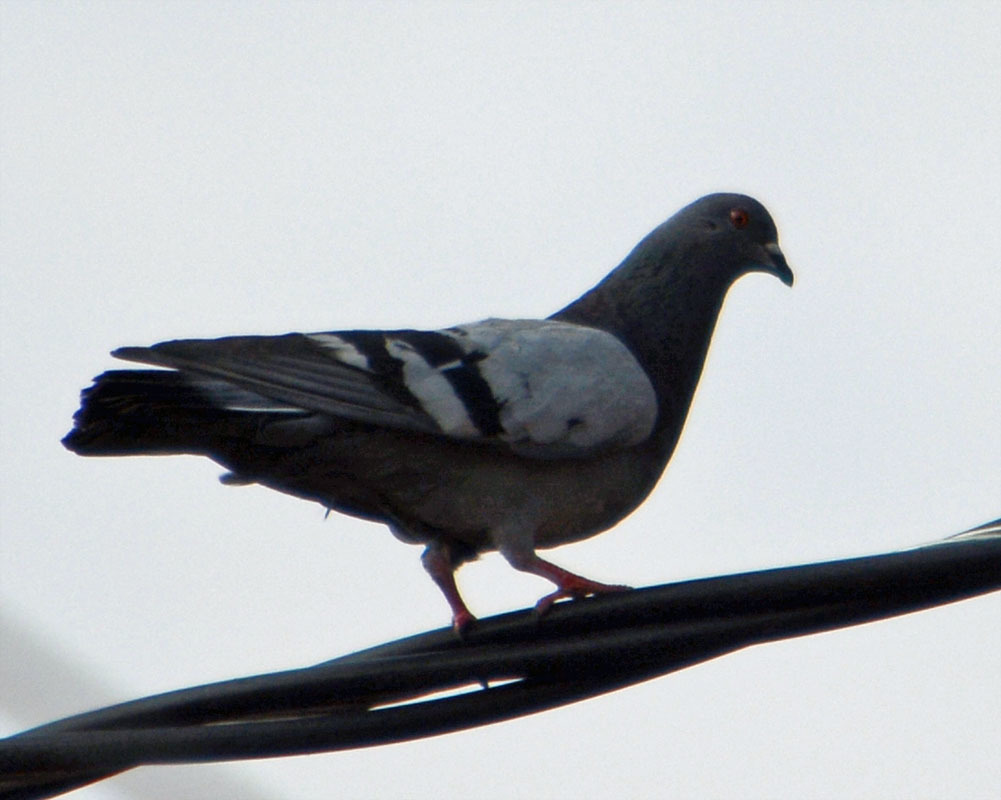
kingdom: Animalia
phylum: Chordata
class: Aves
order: Columbiformes
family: Columbidae
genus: Columba
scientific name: Columba livia
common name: Rock pigeon
